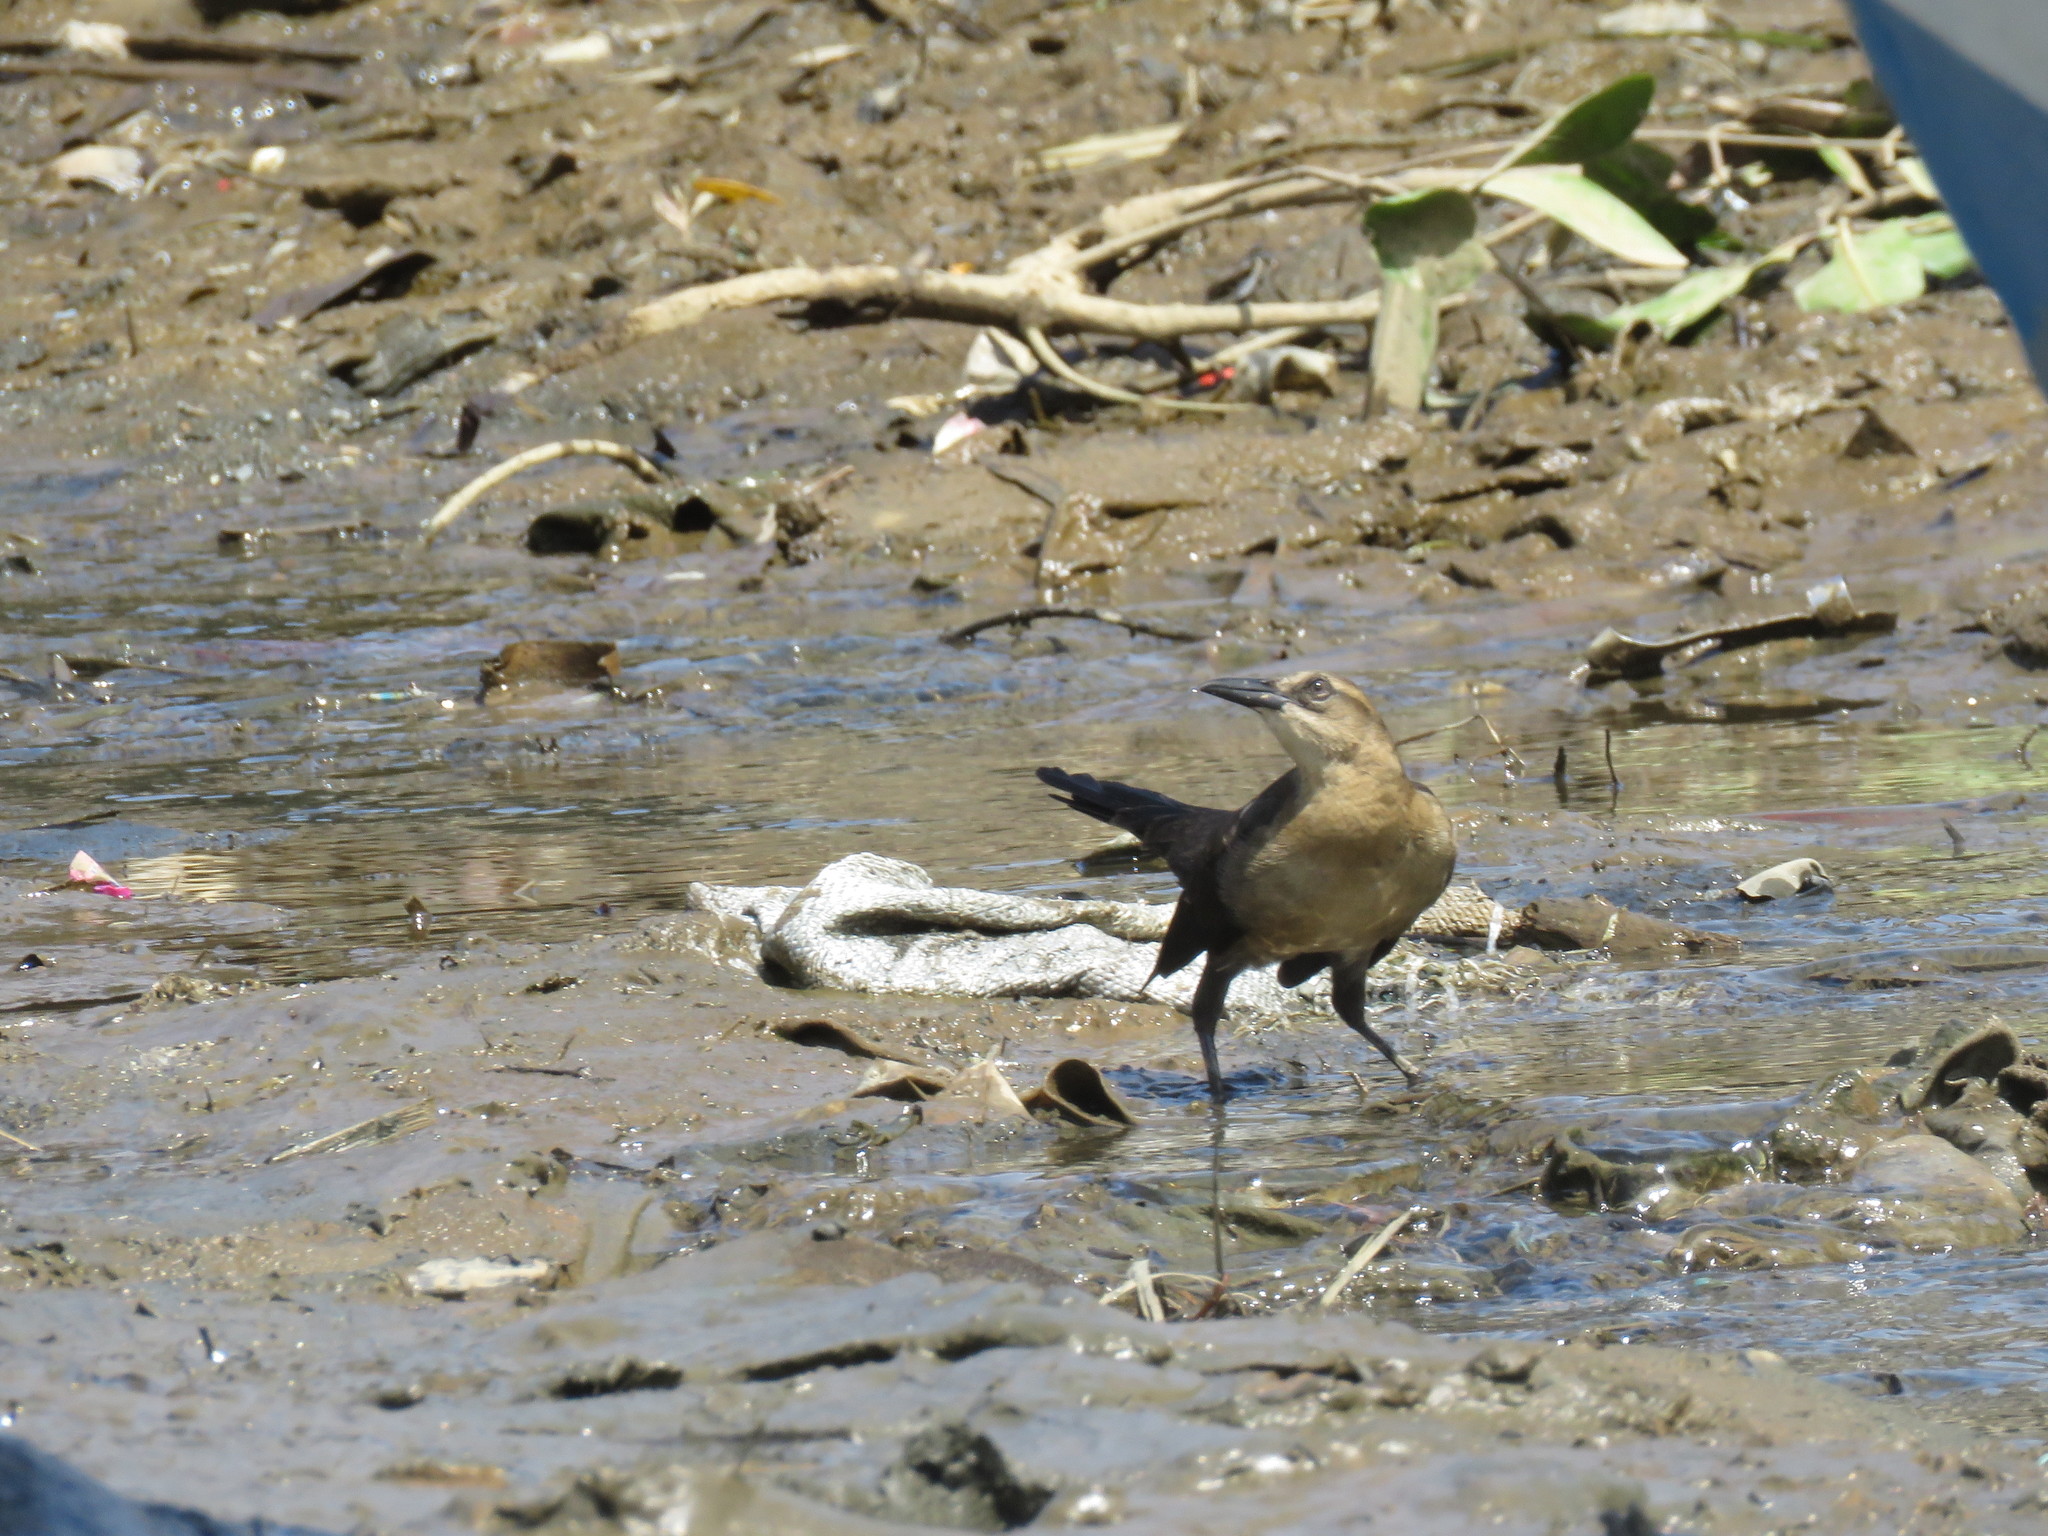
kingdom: Animalia
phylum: Chordata
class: Aves
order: Passeriformes
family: Icteridae
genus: Quiscalus
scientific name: Quiscalus mexicanus
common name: Great-tailed grackle
